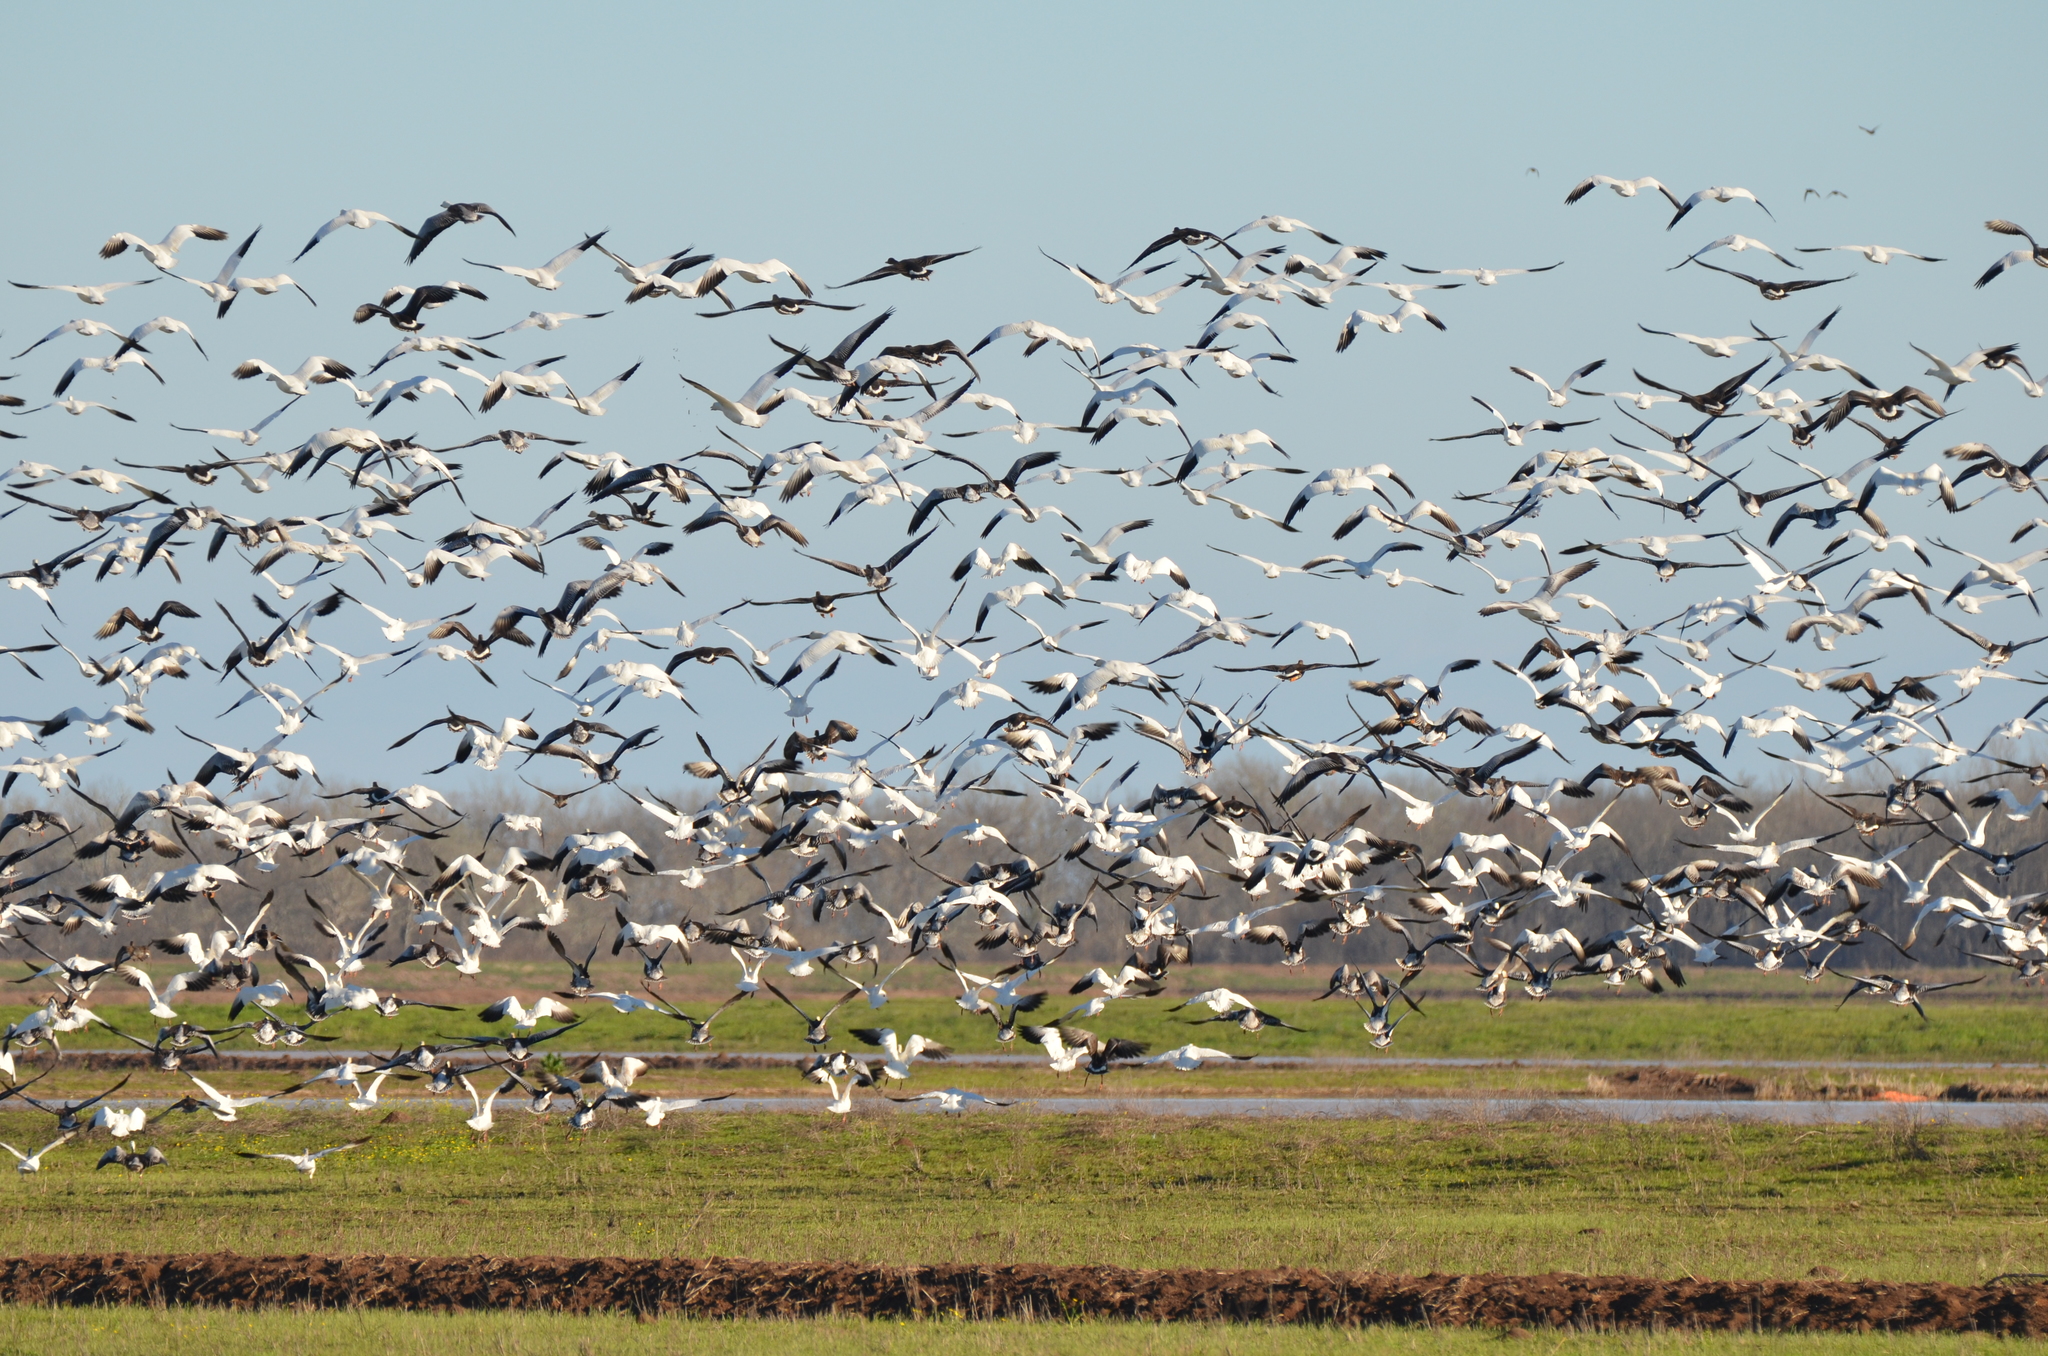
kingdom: Animalia
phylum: Chordata
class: Aves
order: Anseriformes
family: Anatidae
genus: Anser
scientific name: Anser caerulescens
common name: Snow goose
